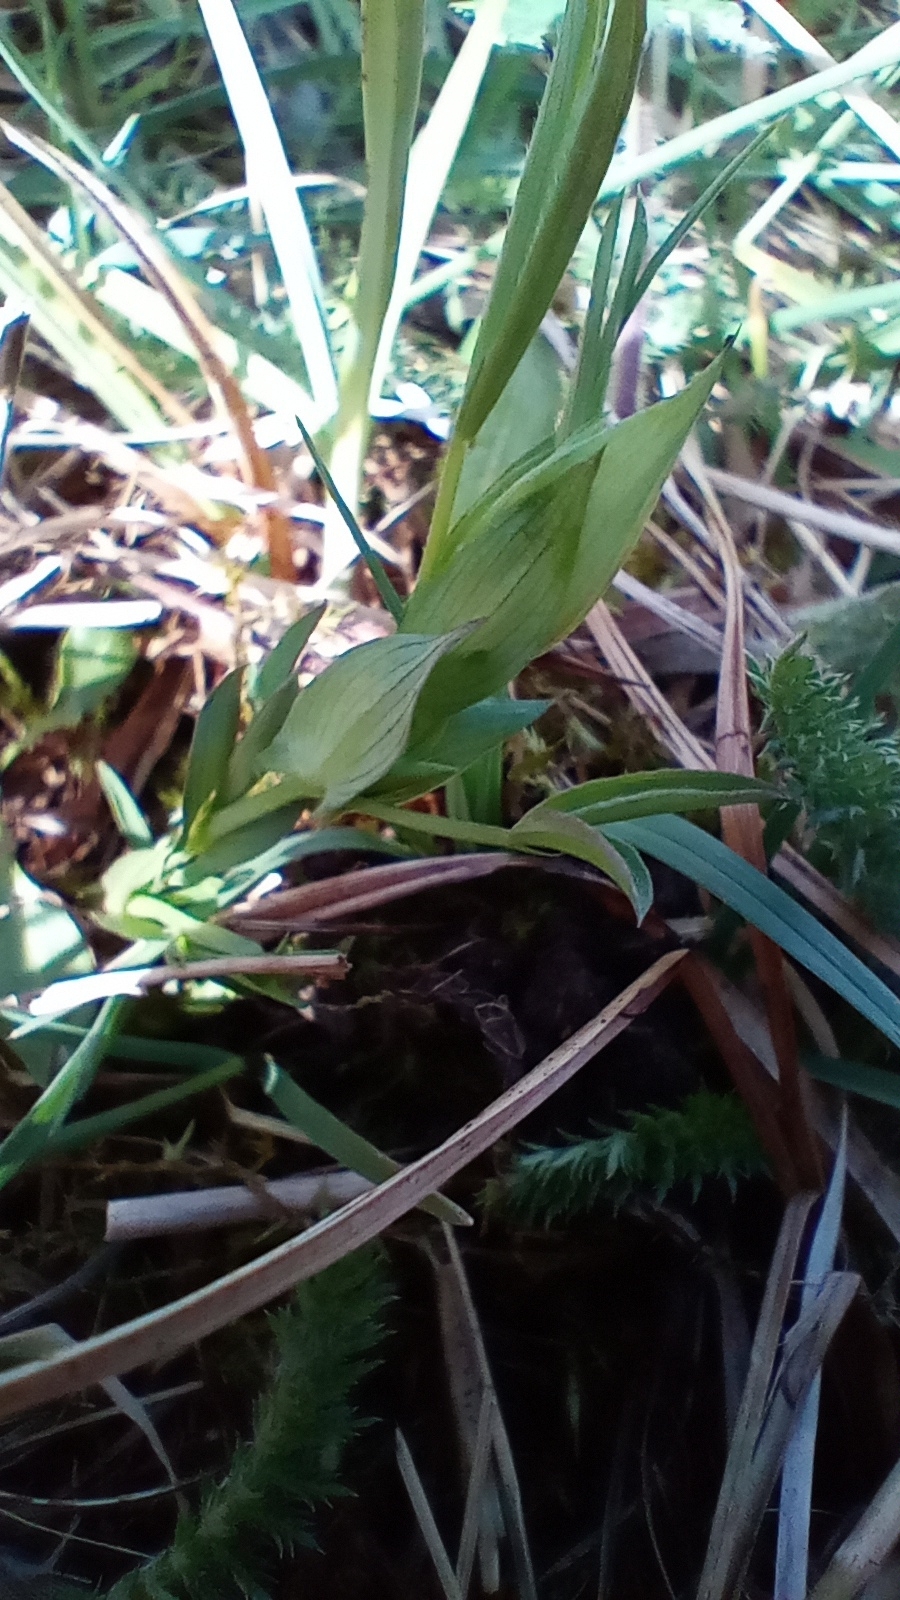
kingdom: Plantae
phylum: Tracheophyta
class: Magnoliopsida
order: Fabales
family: Fabaceae
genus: Lathyrus
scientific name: Lathyrus pratensis
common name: Meadow vetchling
